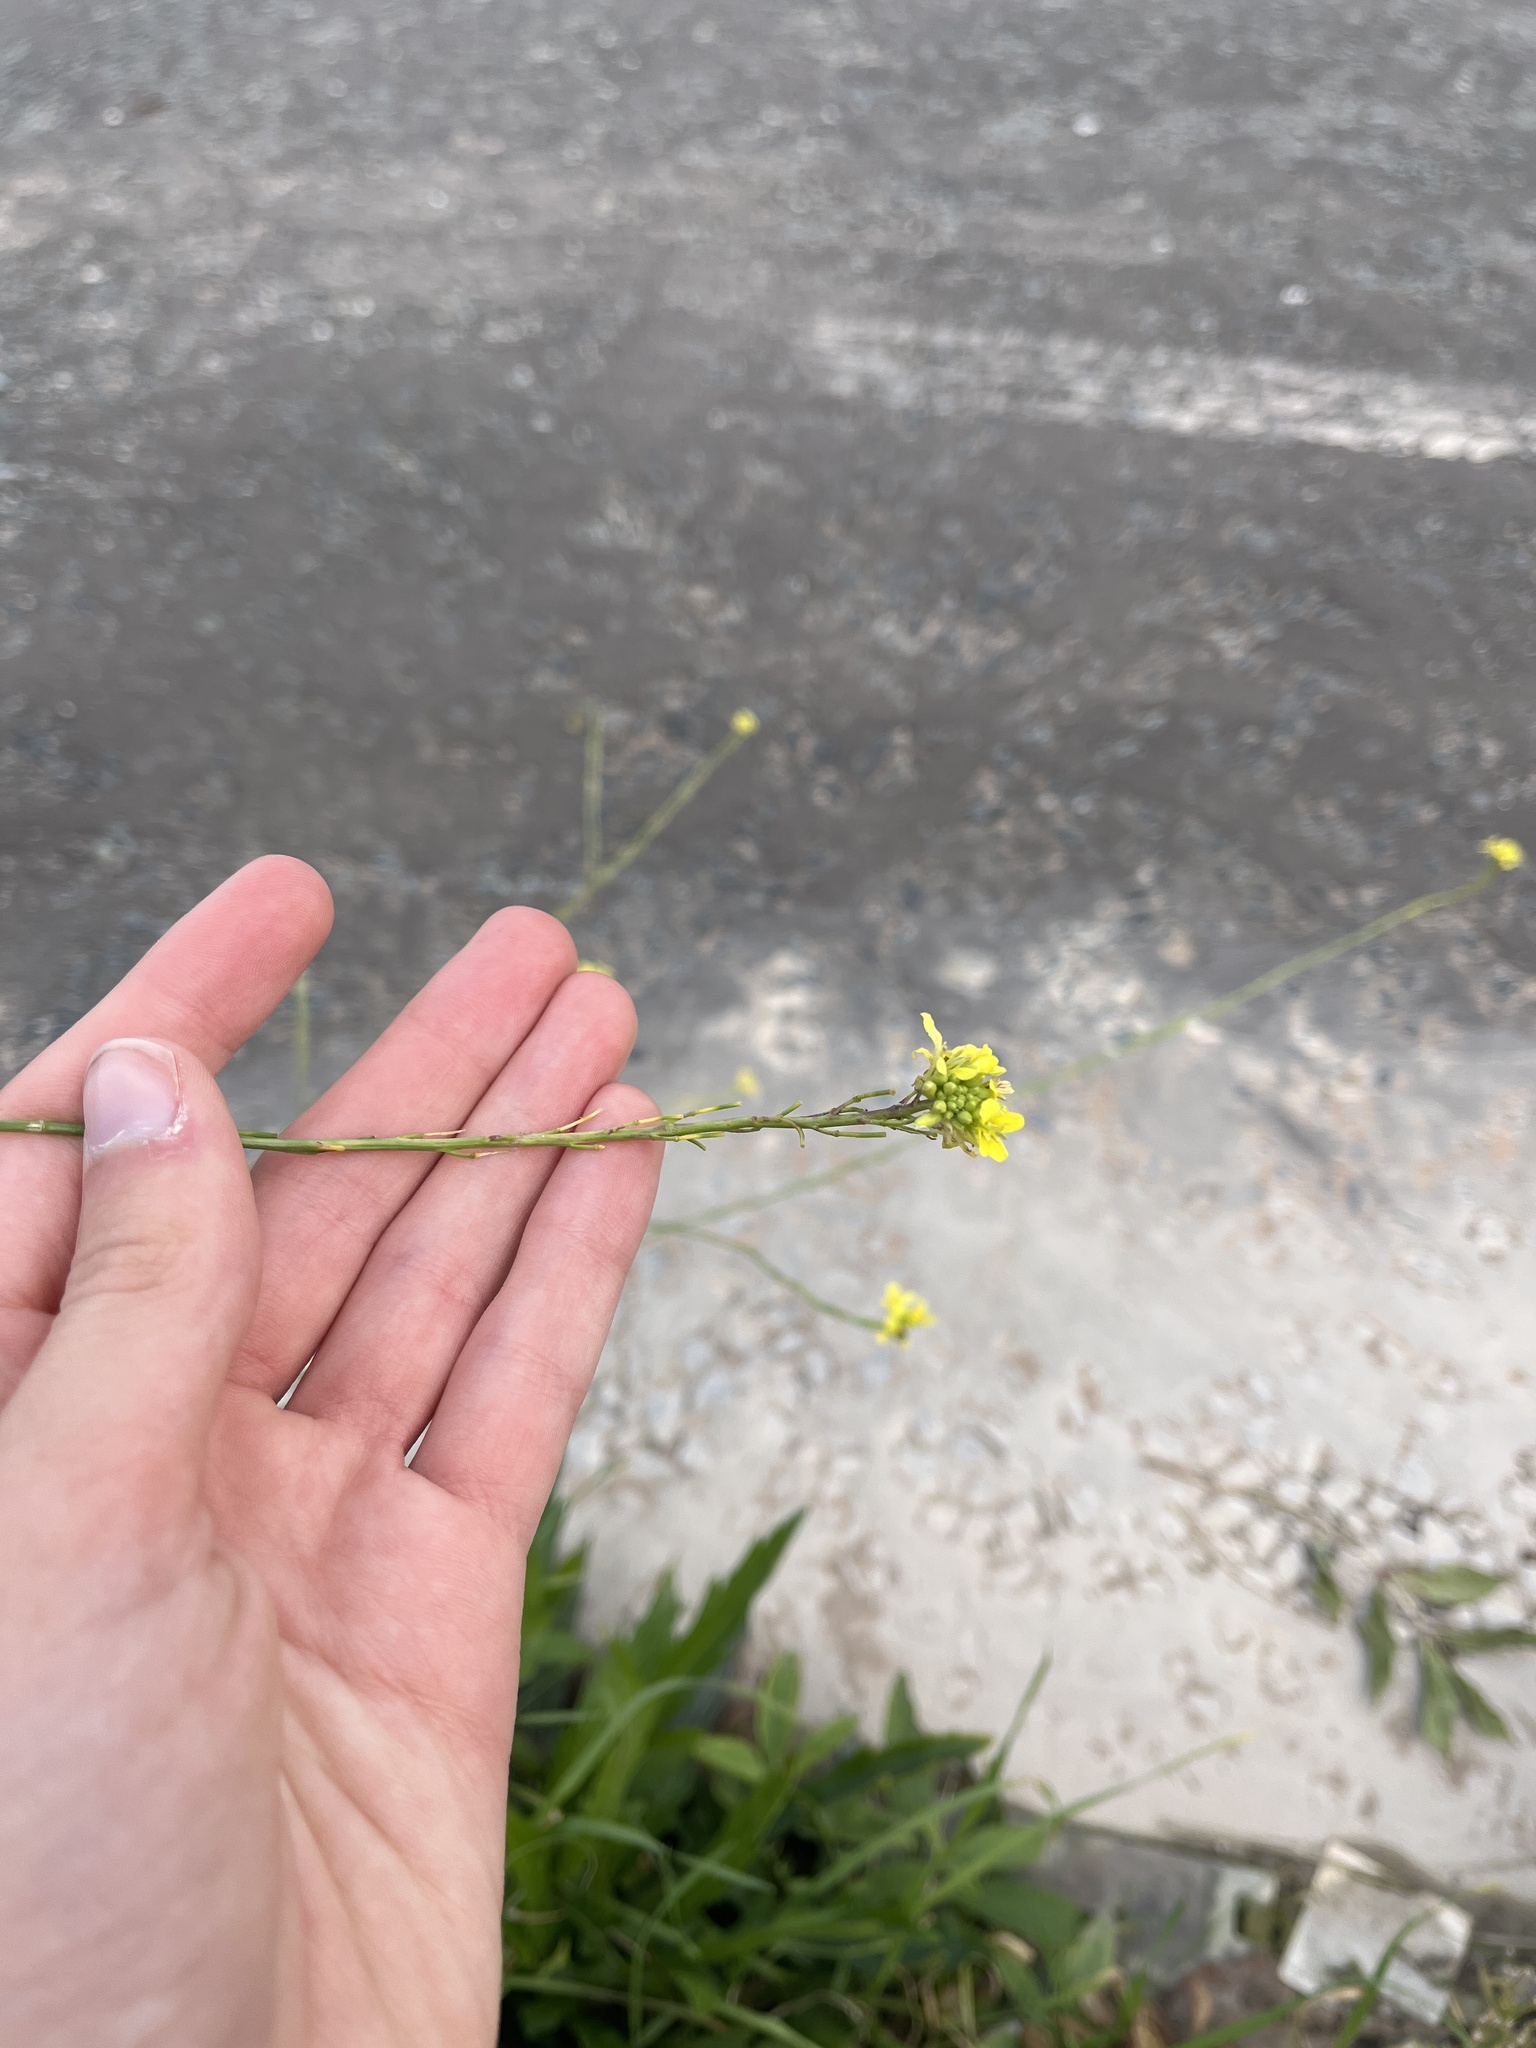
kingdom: Plantae
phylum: Tracheophyta
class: Magnoliopsida
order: Brassicales
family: Brassicaceae
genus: Hirschfeldia
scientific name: Hirschfeldia incana
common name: Hoary mustard
